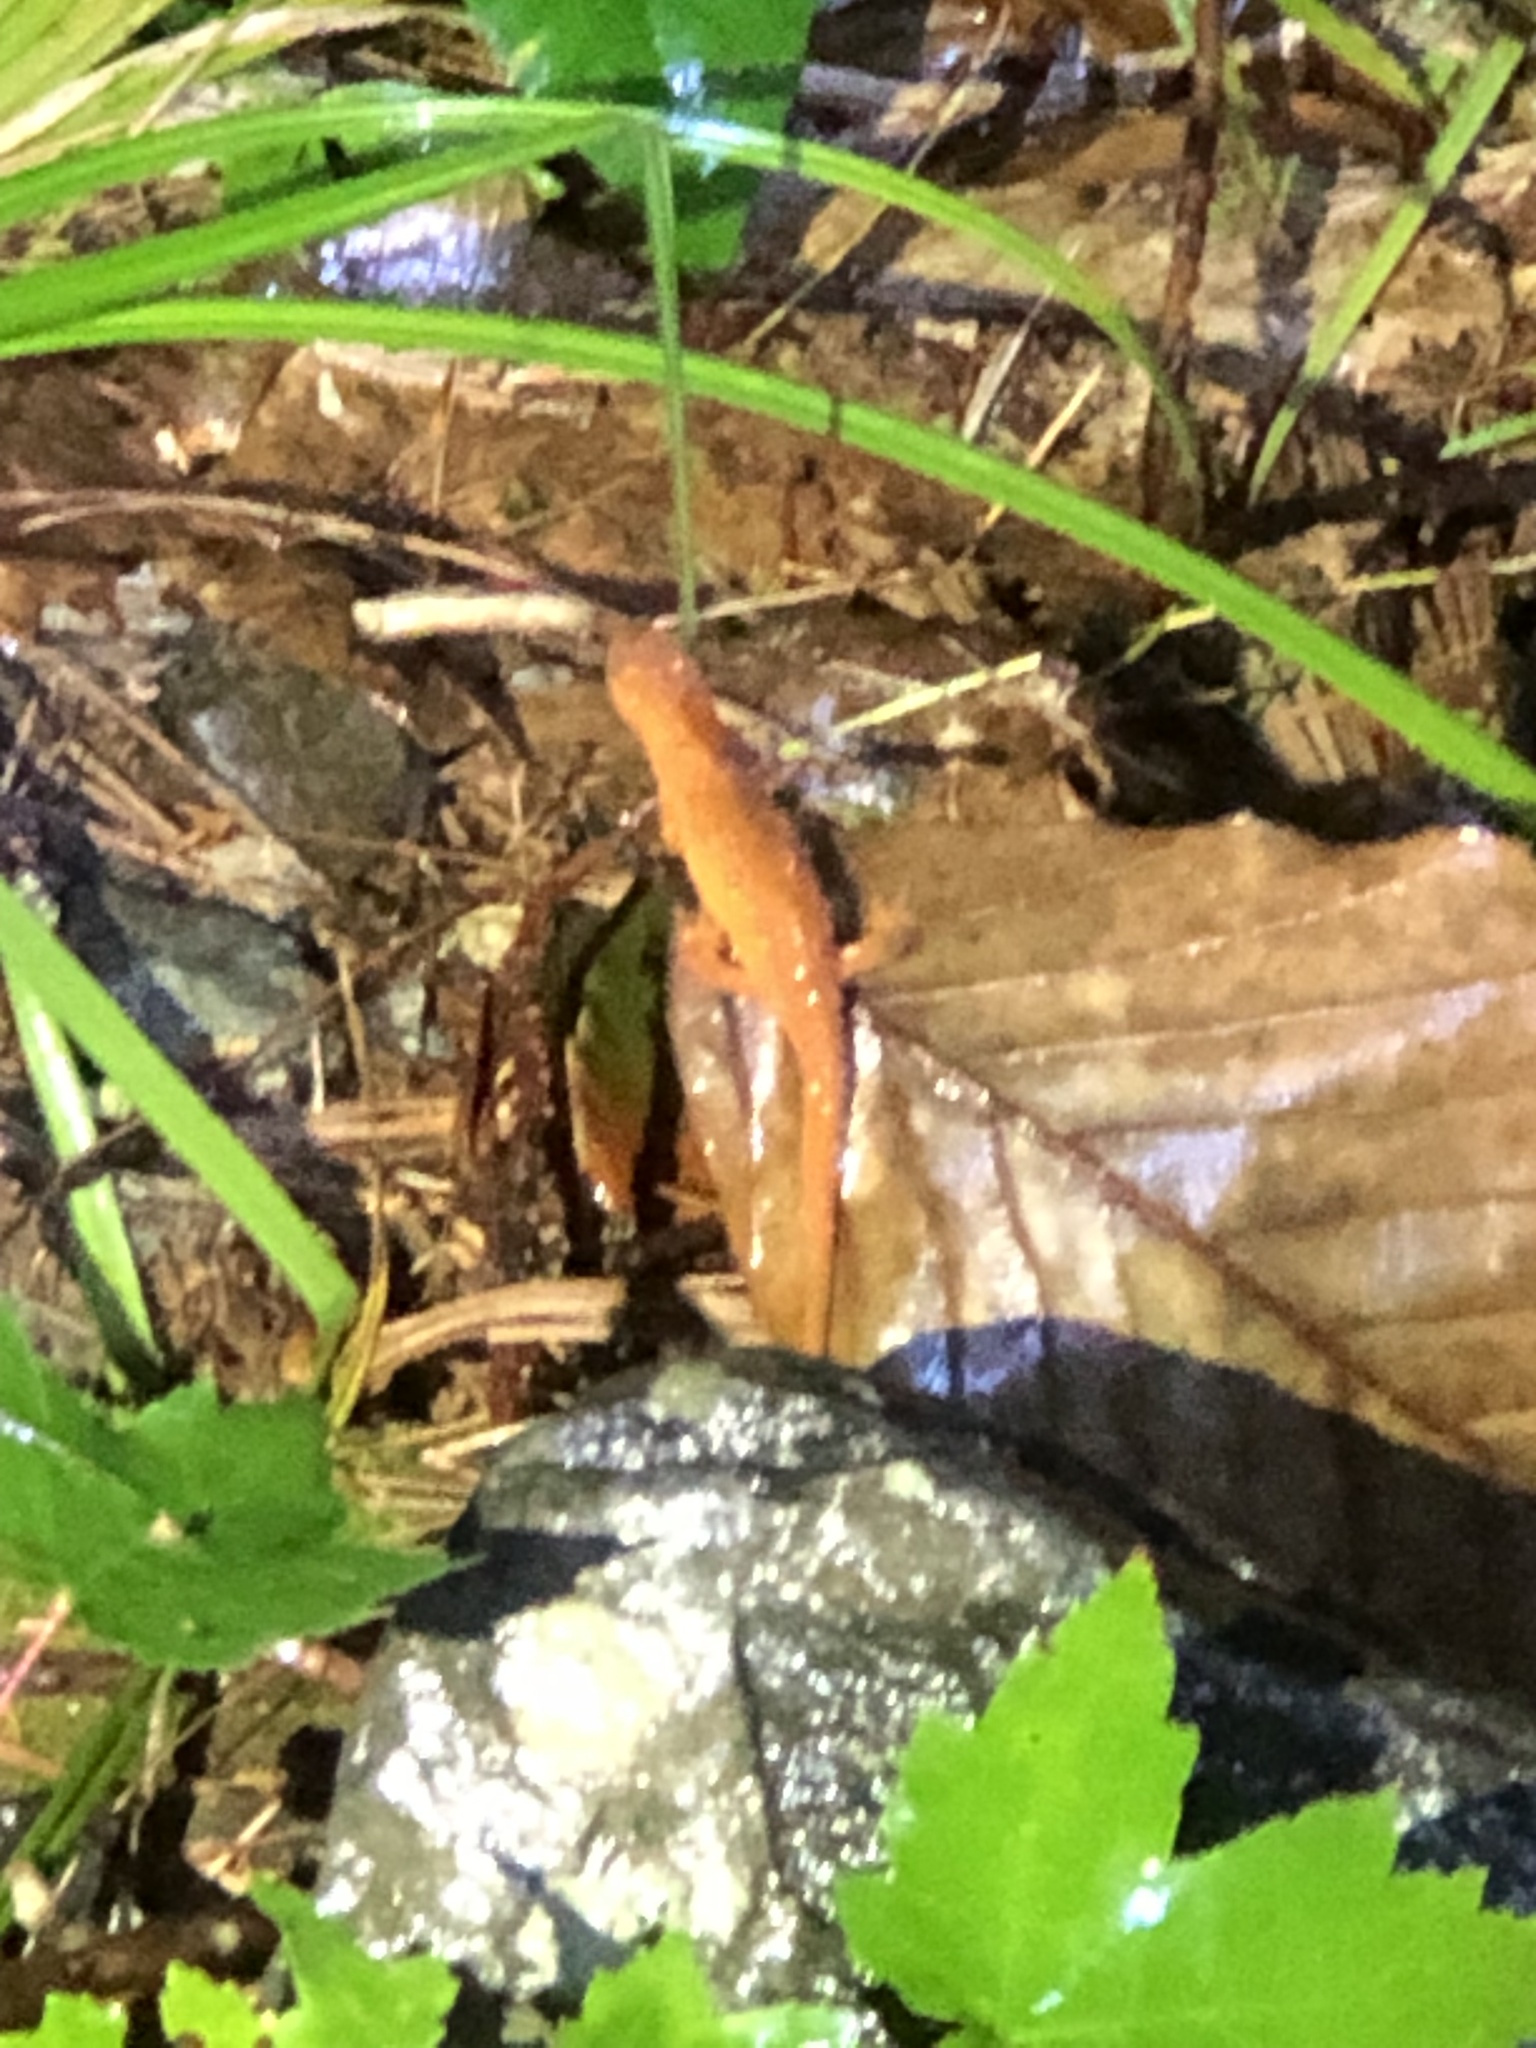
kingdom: Animalia
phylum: Chordata
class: Amphibia
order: Caudata
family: Salamandridae
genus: Notophthalmus
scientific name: Notophthalmus viridescens
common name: Eastern newt
